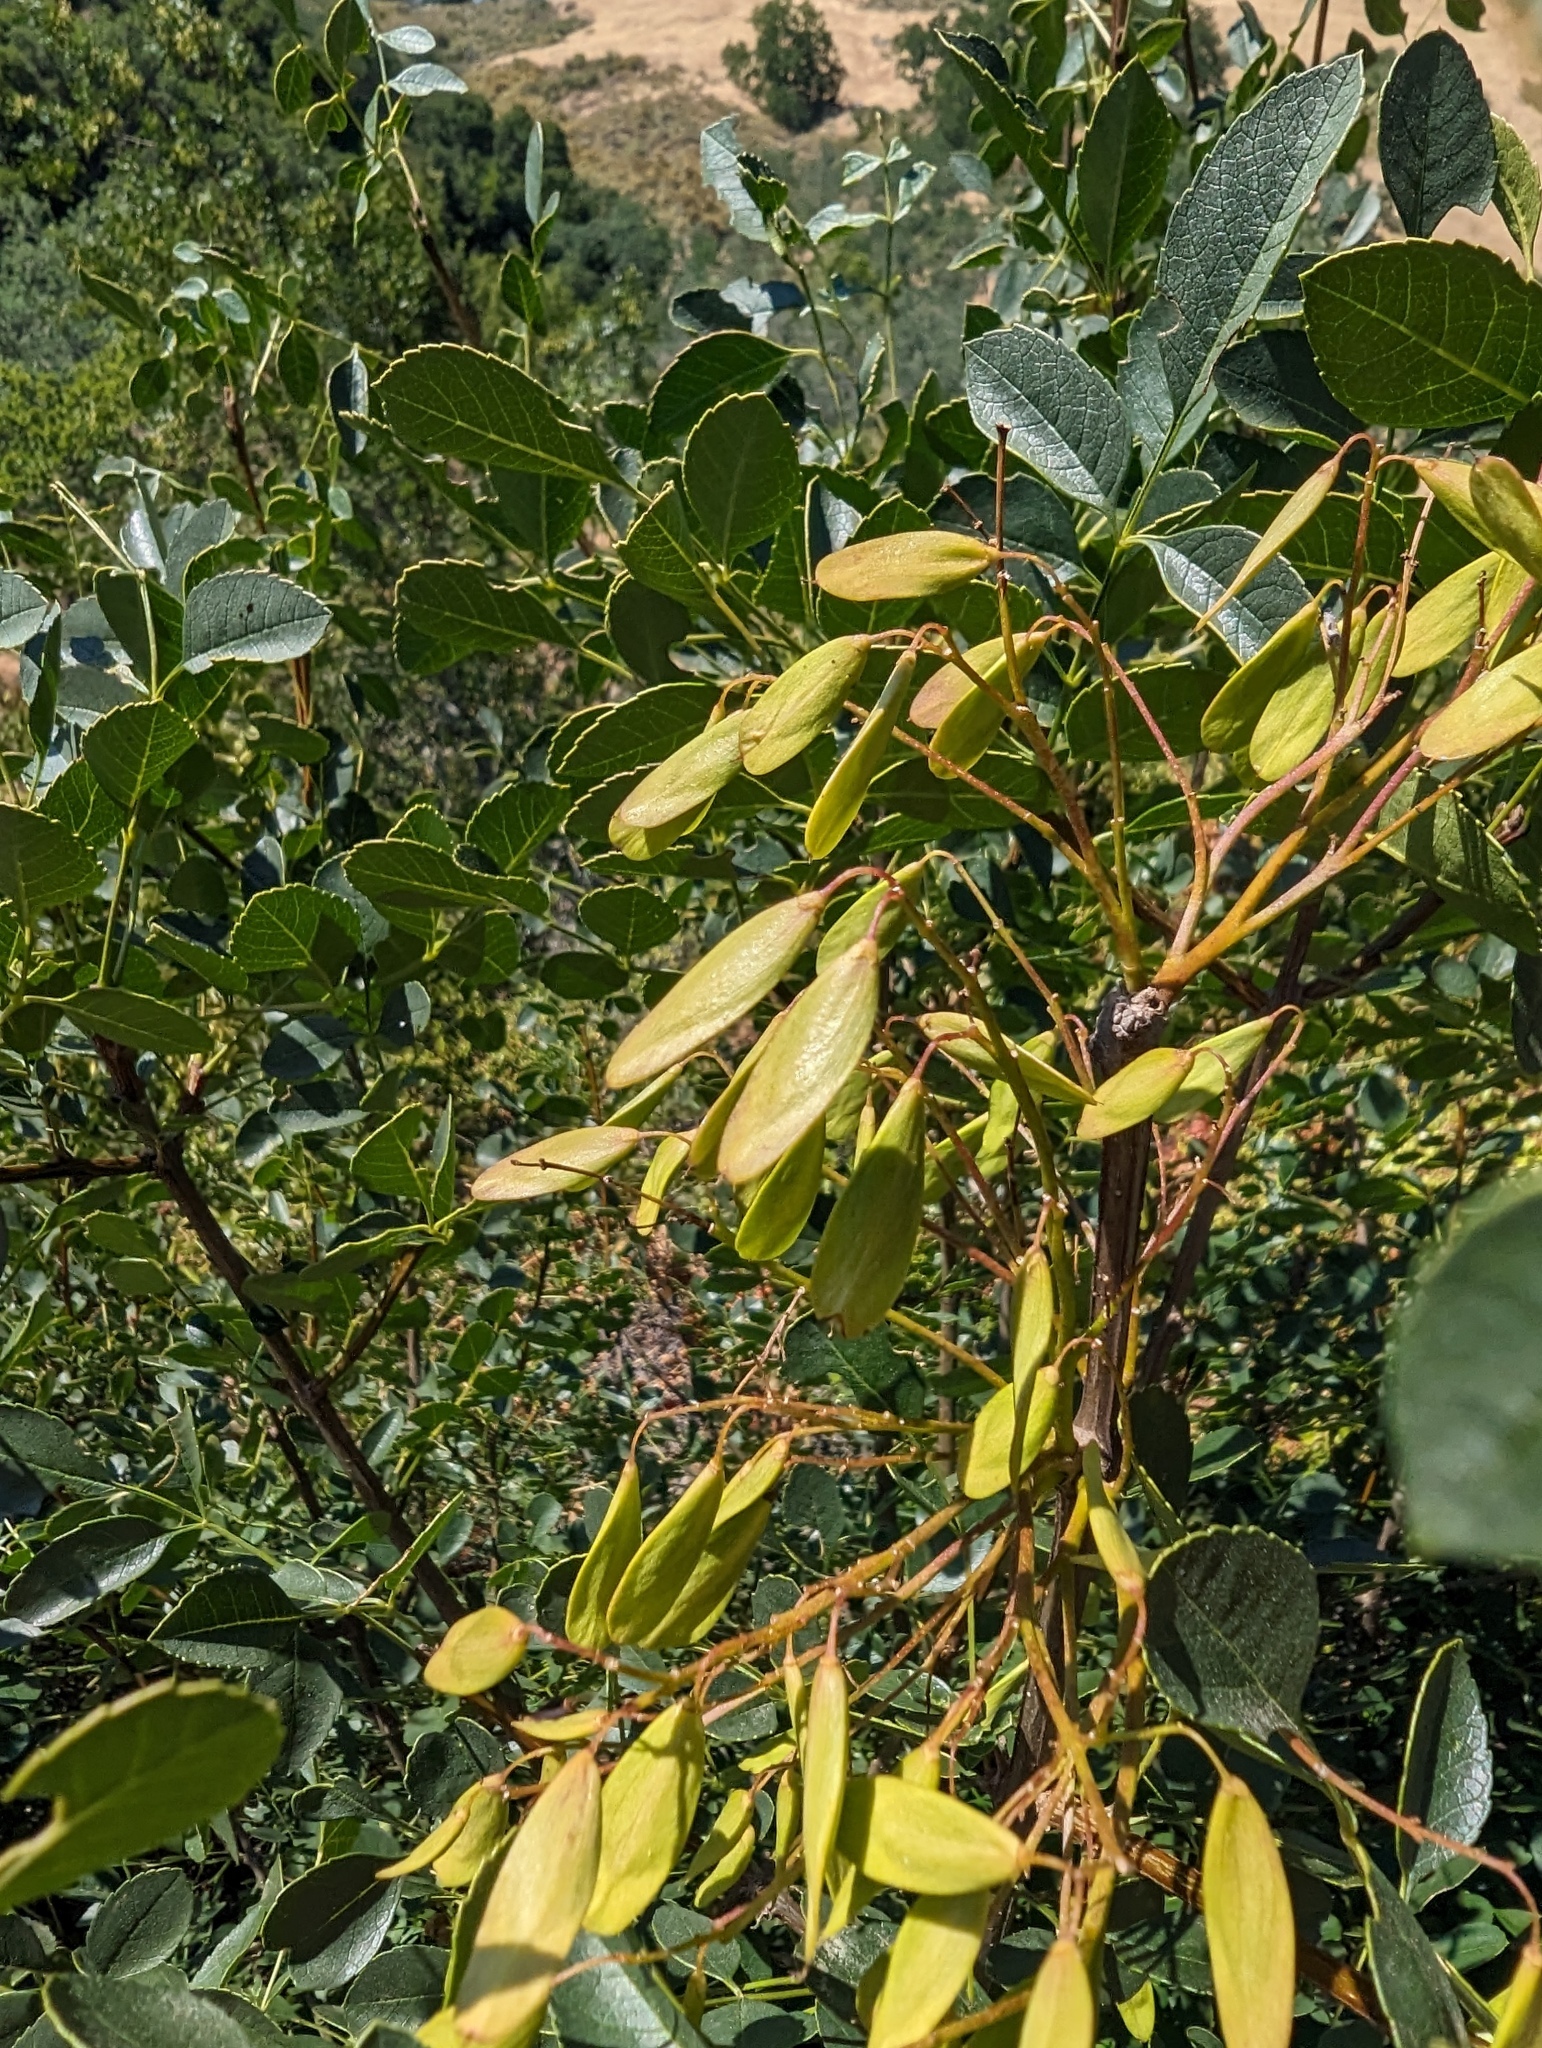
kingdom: Plantae
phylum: Tracheophyta
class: Magnoliopsida
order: Lamiales
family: Oleaceae
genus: Fraxinus
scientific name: Fraxinus dipetala
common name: California ash
